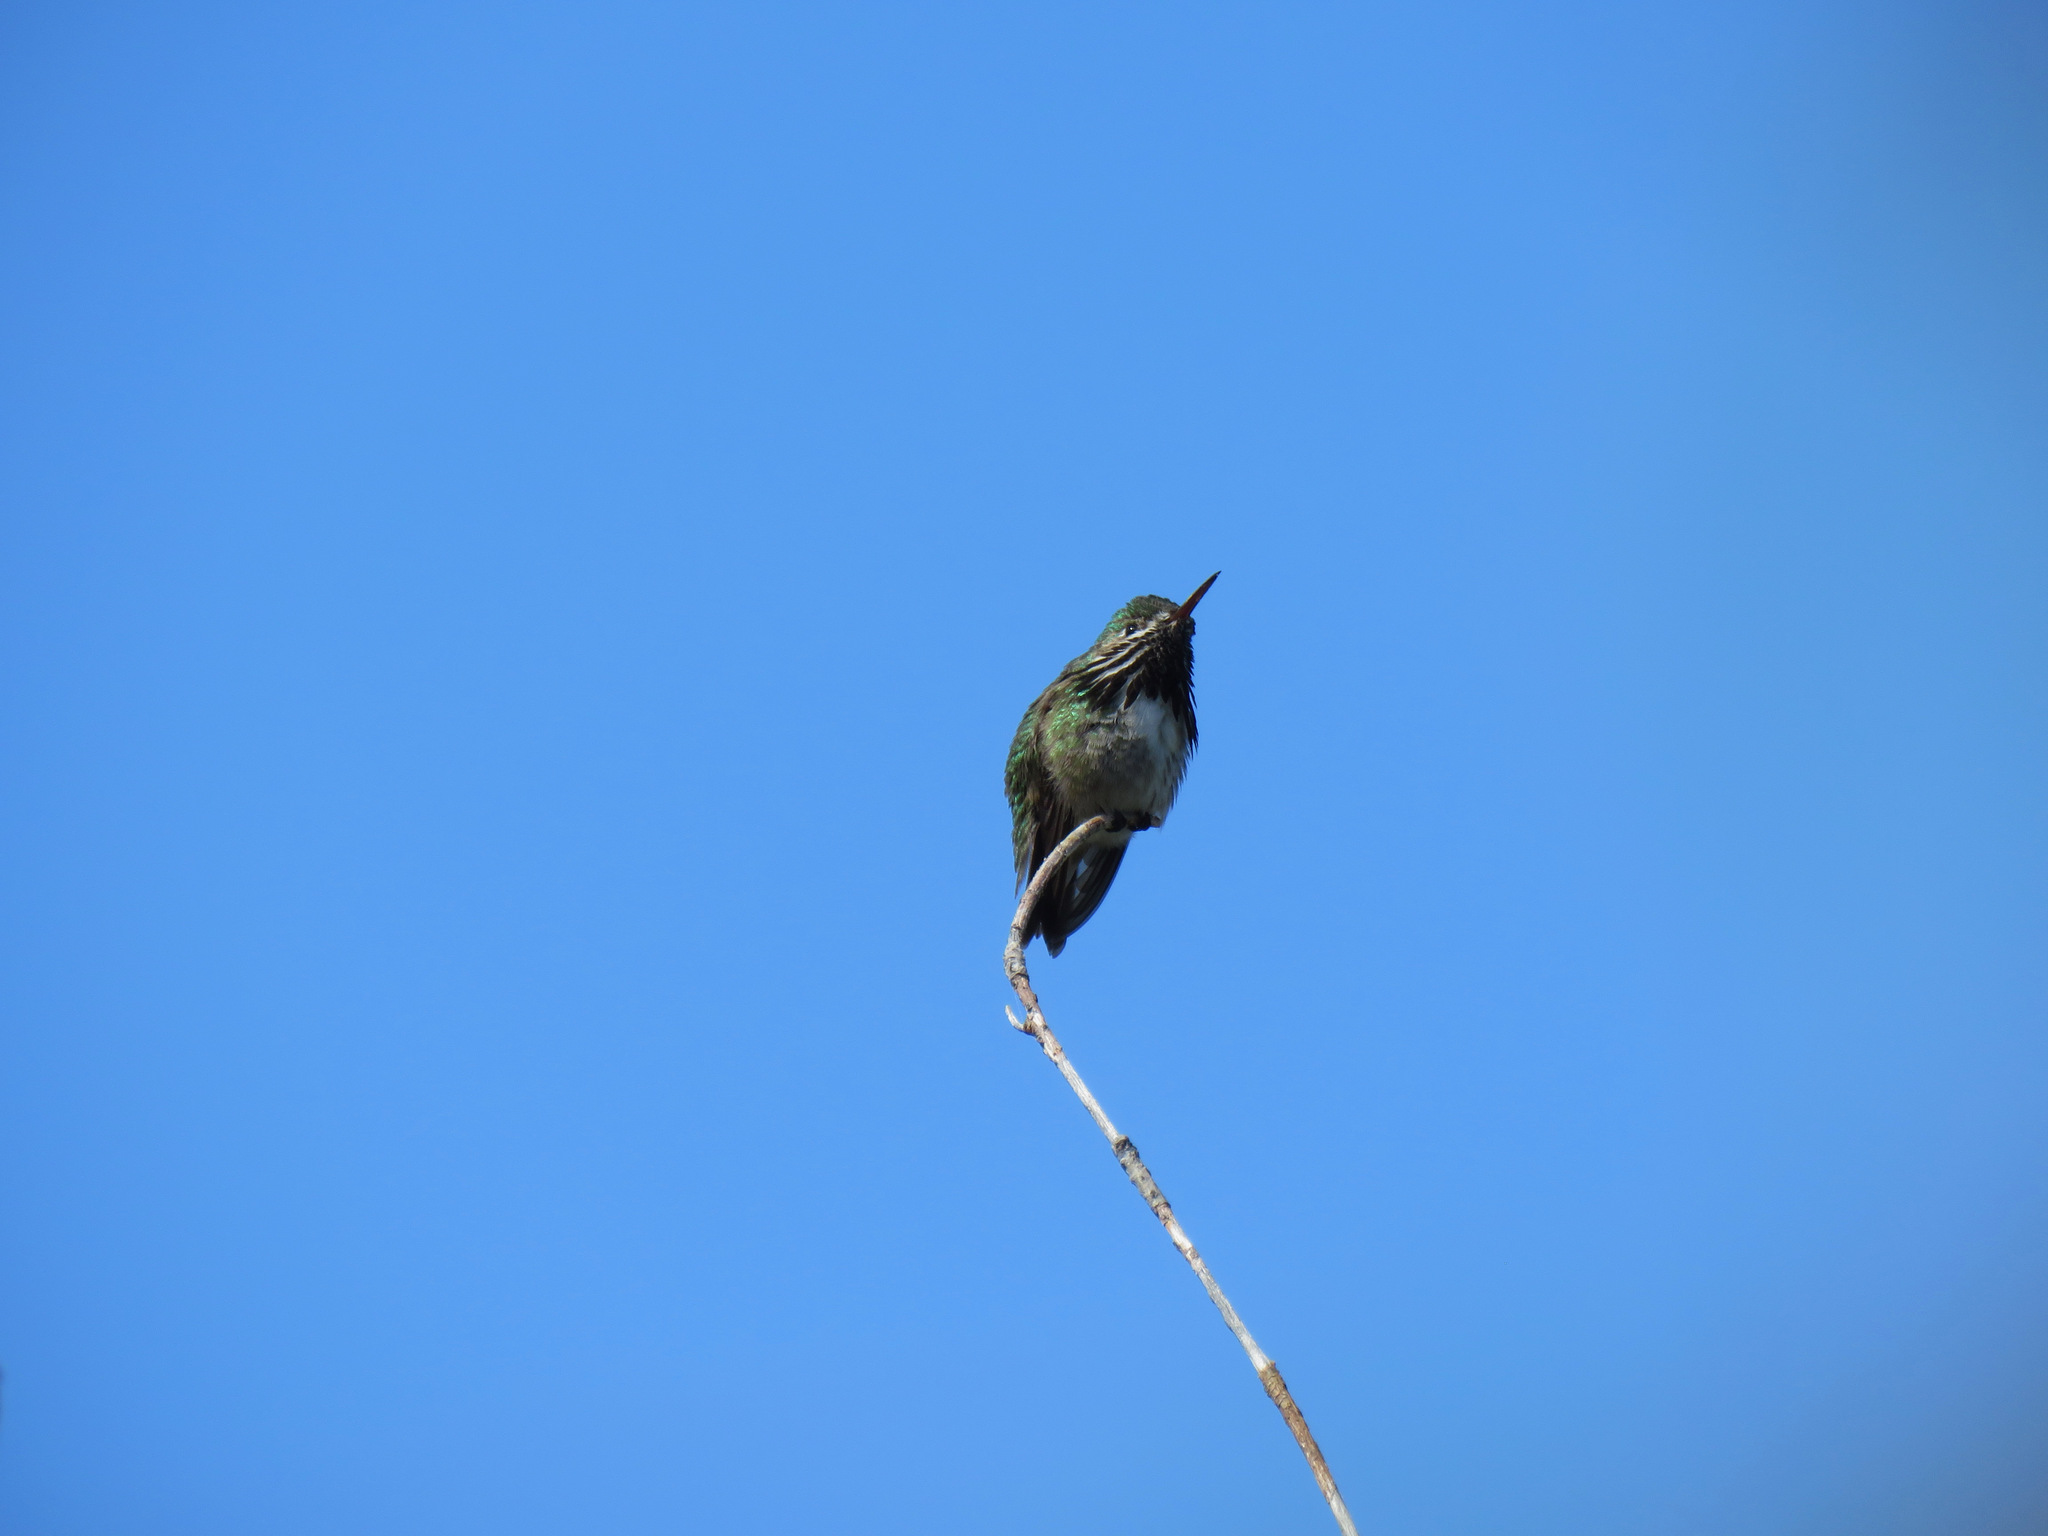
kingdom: Animalia
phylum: Chordata
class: Aves
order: Apodiformes
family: Trochilidae
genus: Selasphorus
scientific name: Selasphorus calliope
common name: Calliope hummingbird
